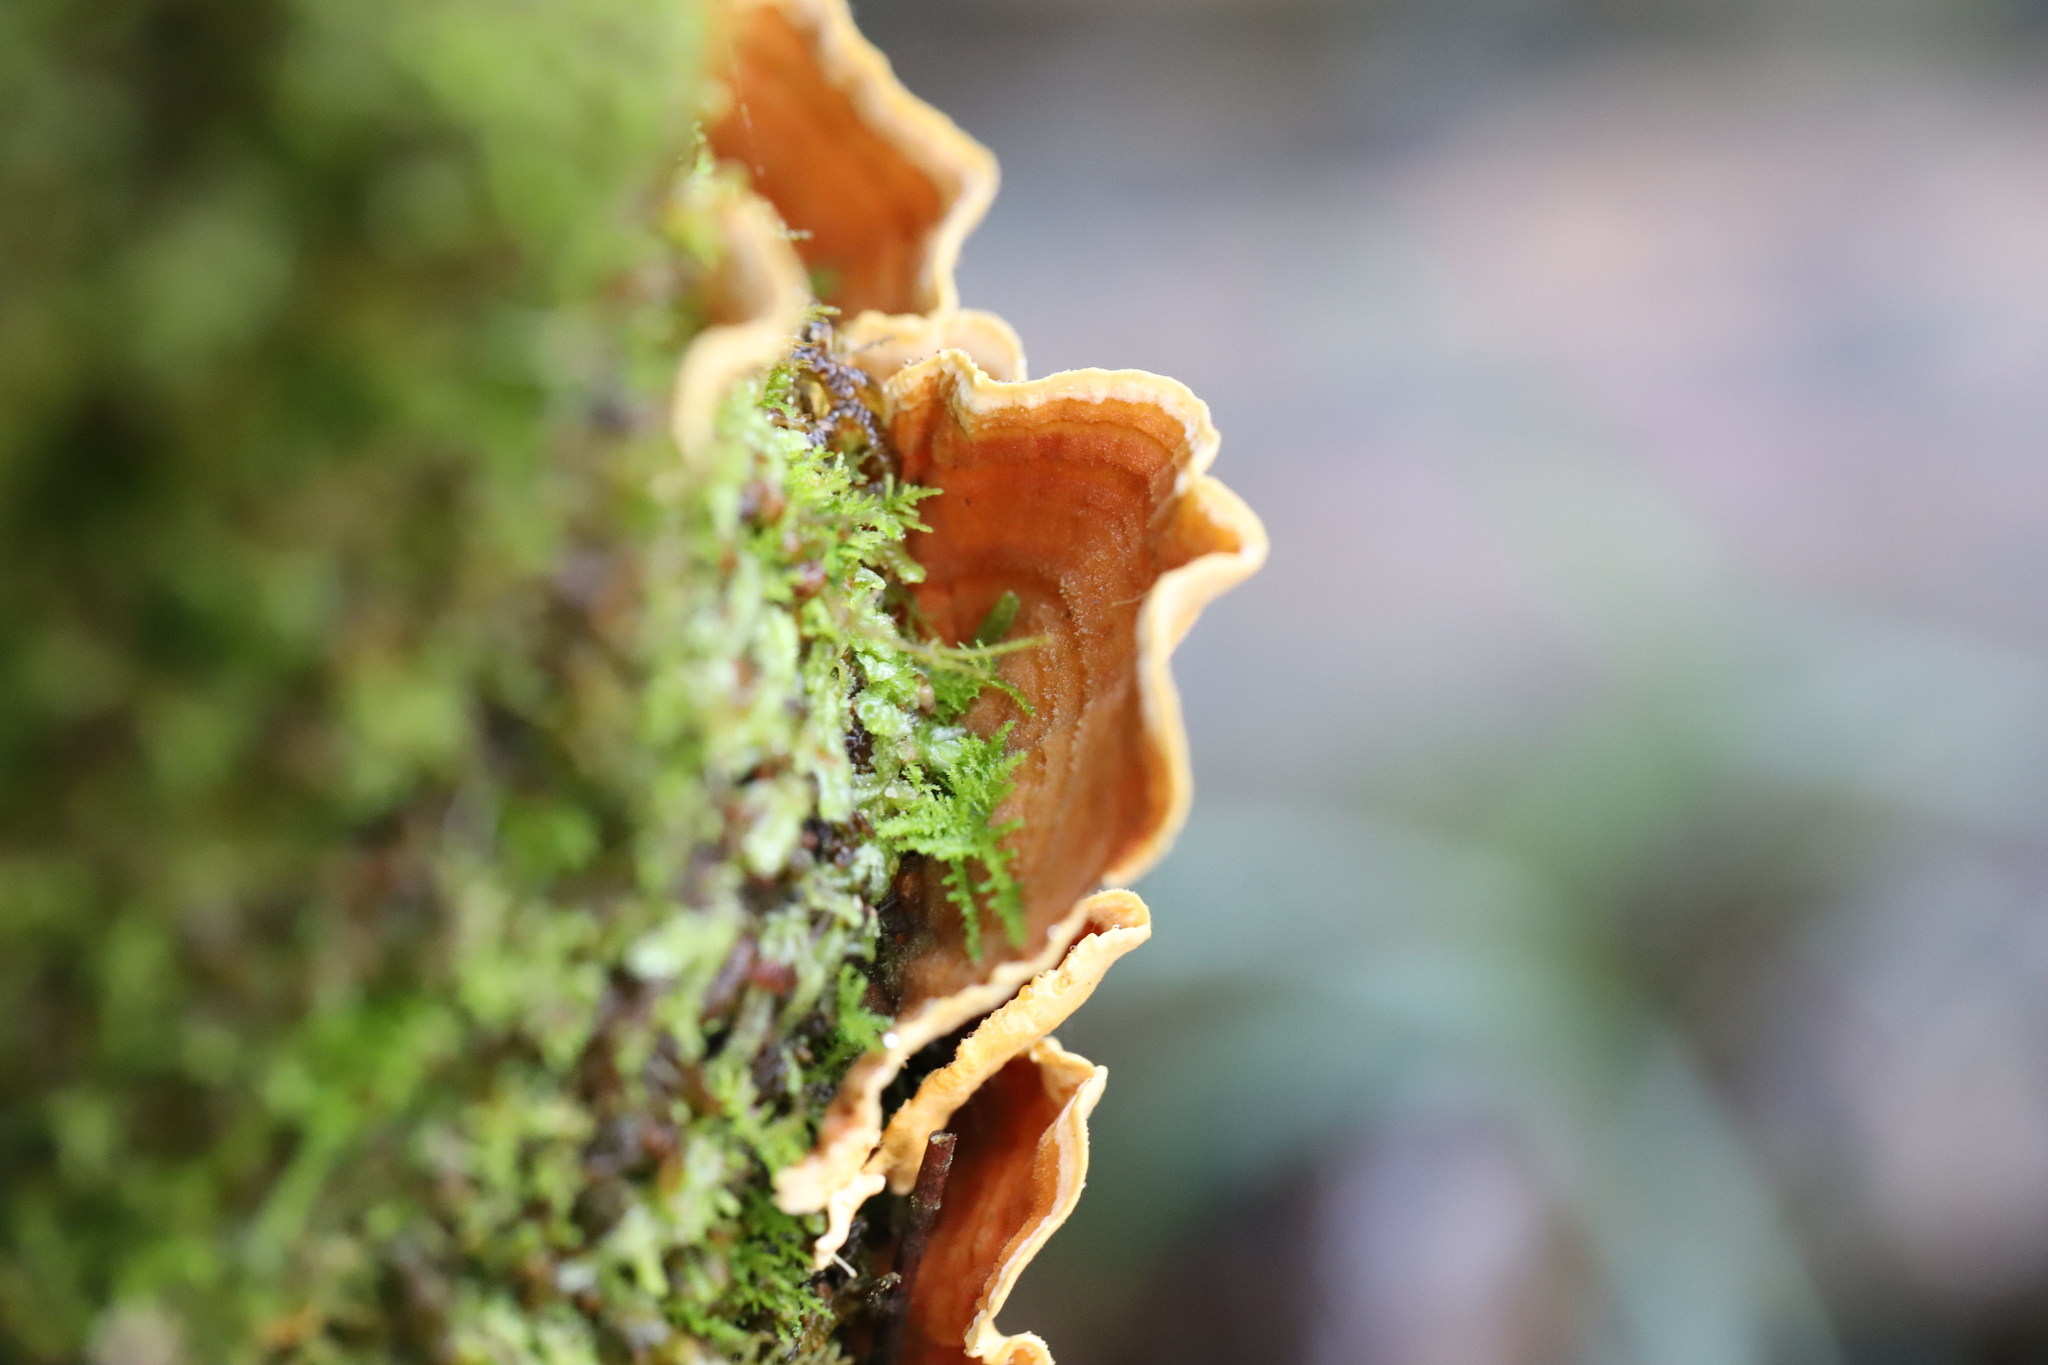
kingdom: Fungi
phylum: Basidiomycota
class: Agaricomycetes
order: Russulales
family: Stereaceae
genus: Stereum
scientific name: Stereum versicolor
